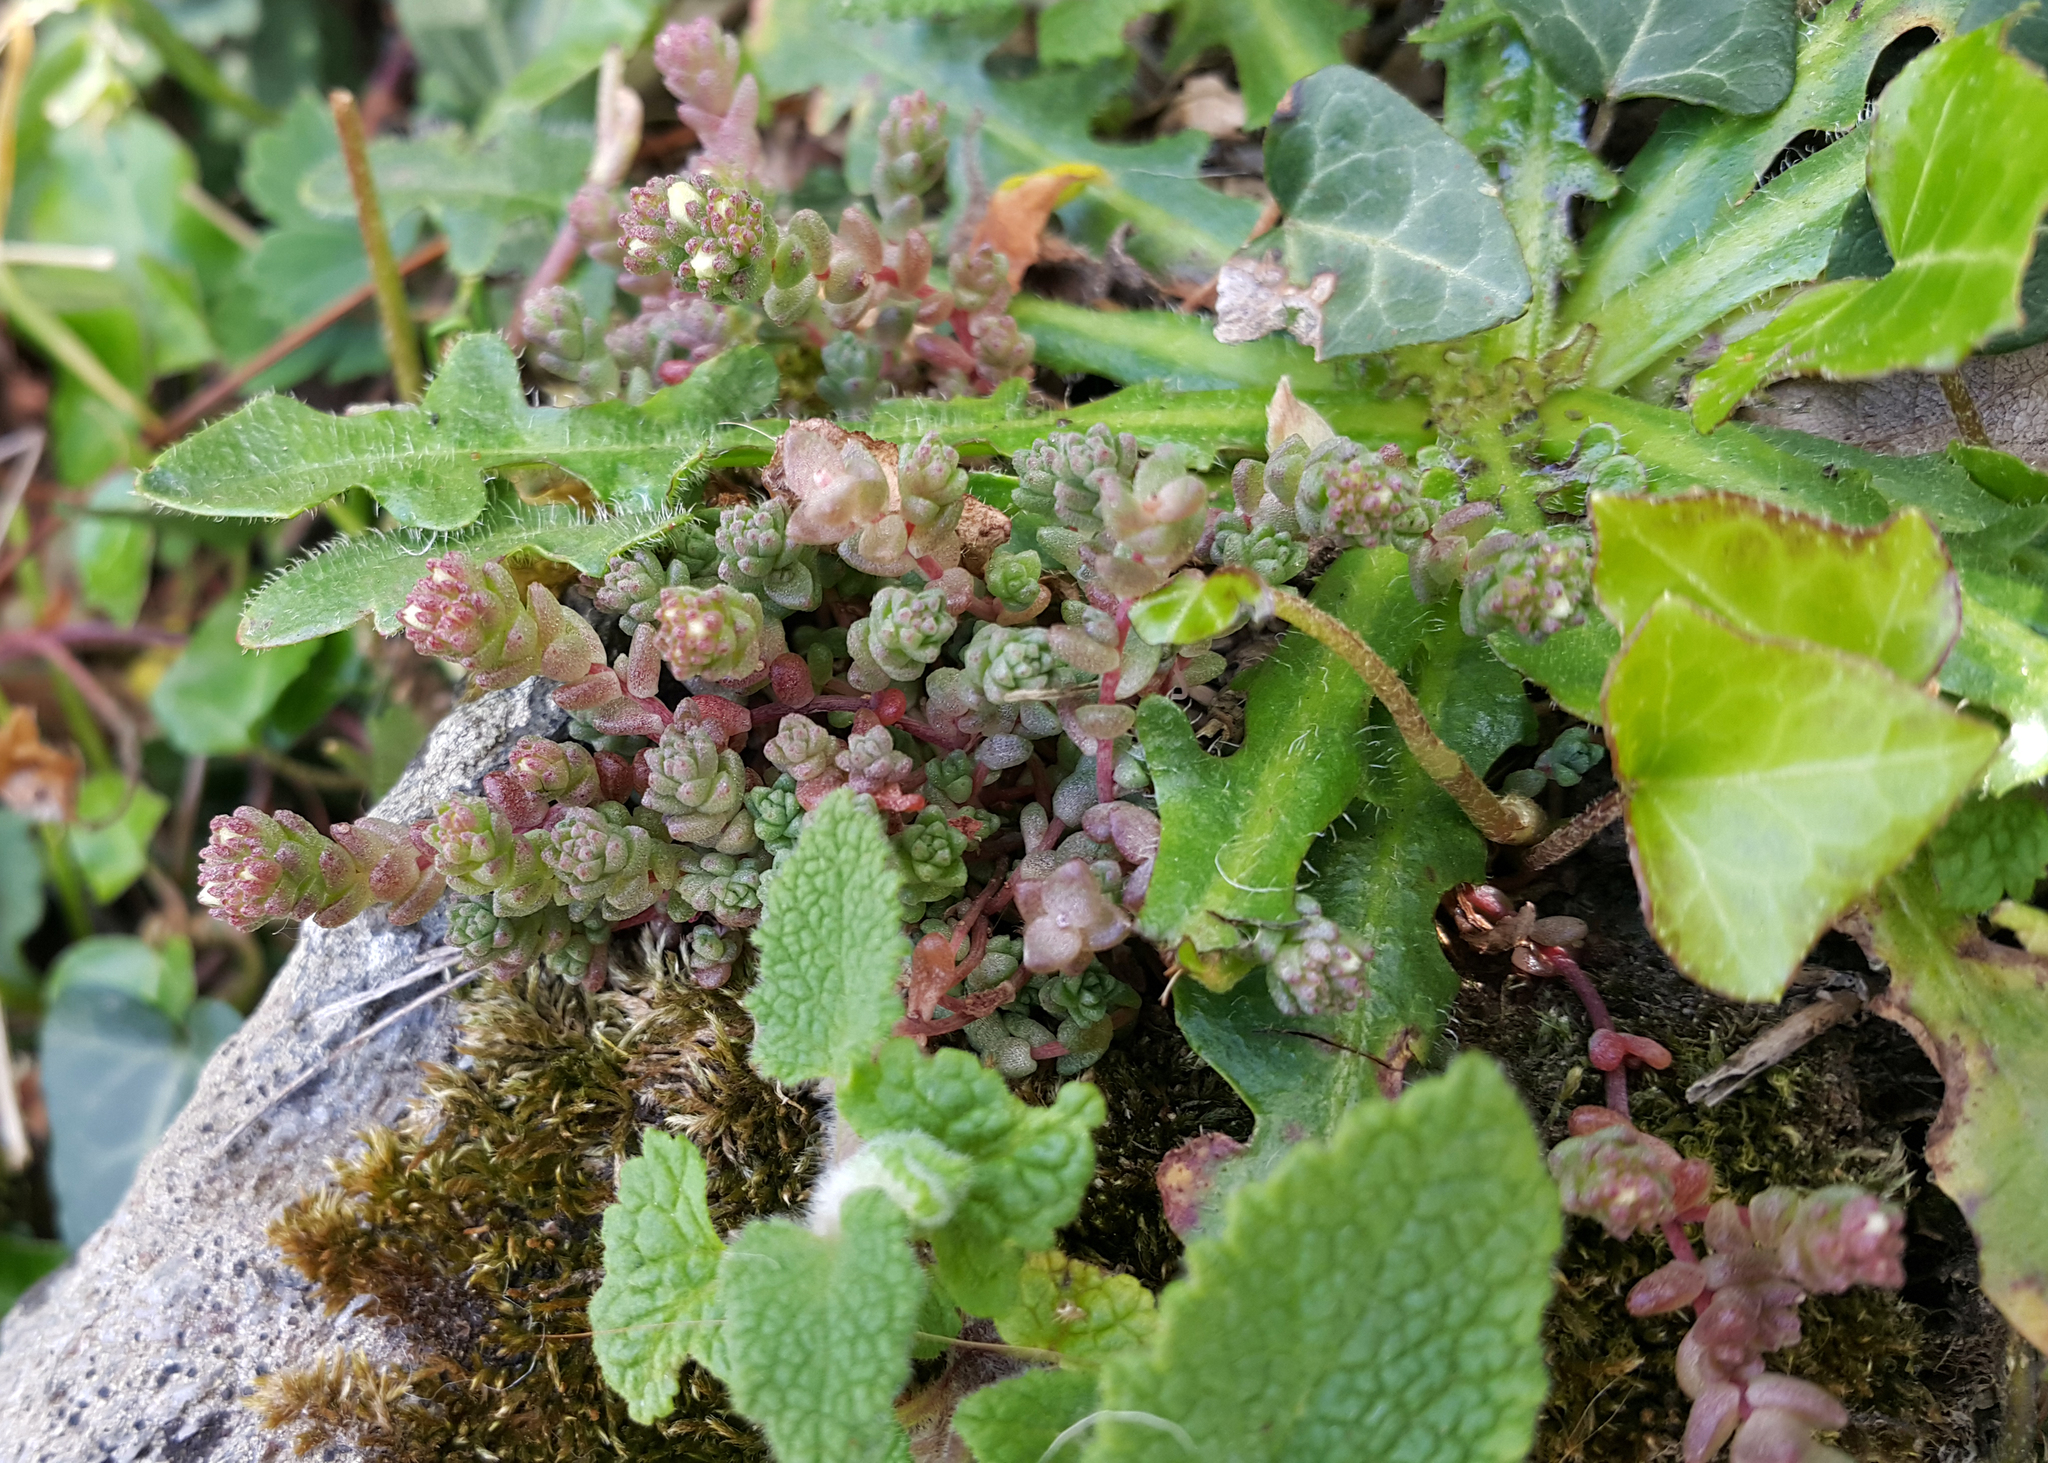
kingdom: Plantae
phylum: Tracheophyta
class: Magnoliopsida
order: Saxifragales
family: Crassulaceae
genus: Sedum
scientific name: Sedum anglicum
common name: English stonecrop
